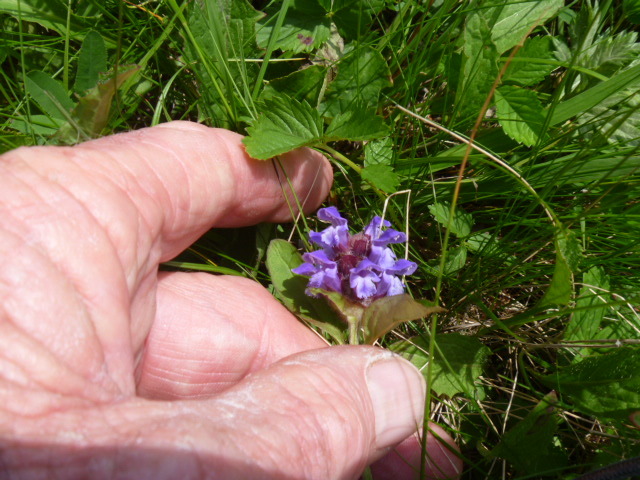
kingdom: Plantae
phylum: Tracheophyta
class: Magnoliopsida
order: Lamiales
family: Lamiaceae
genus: Prunella
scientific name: Prunella vulgaris
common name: Heal-all
